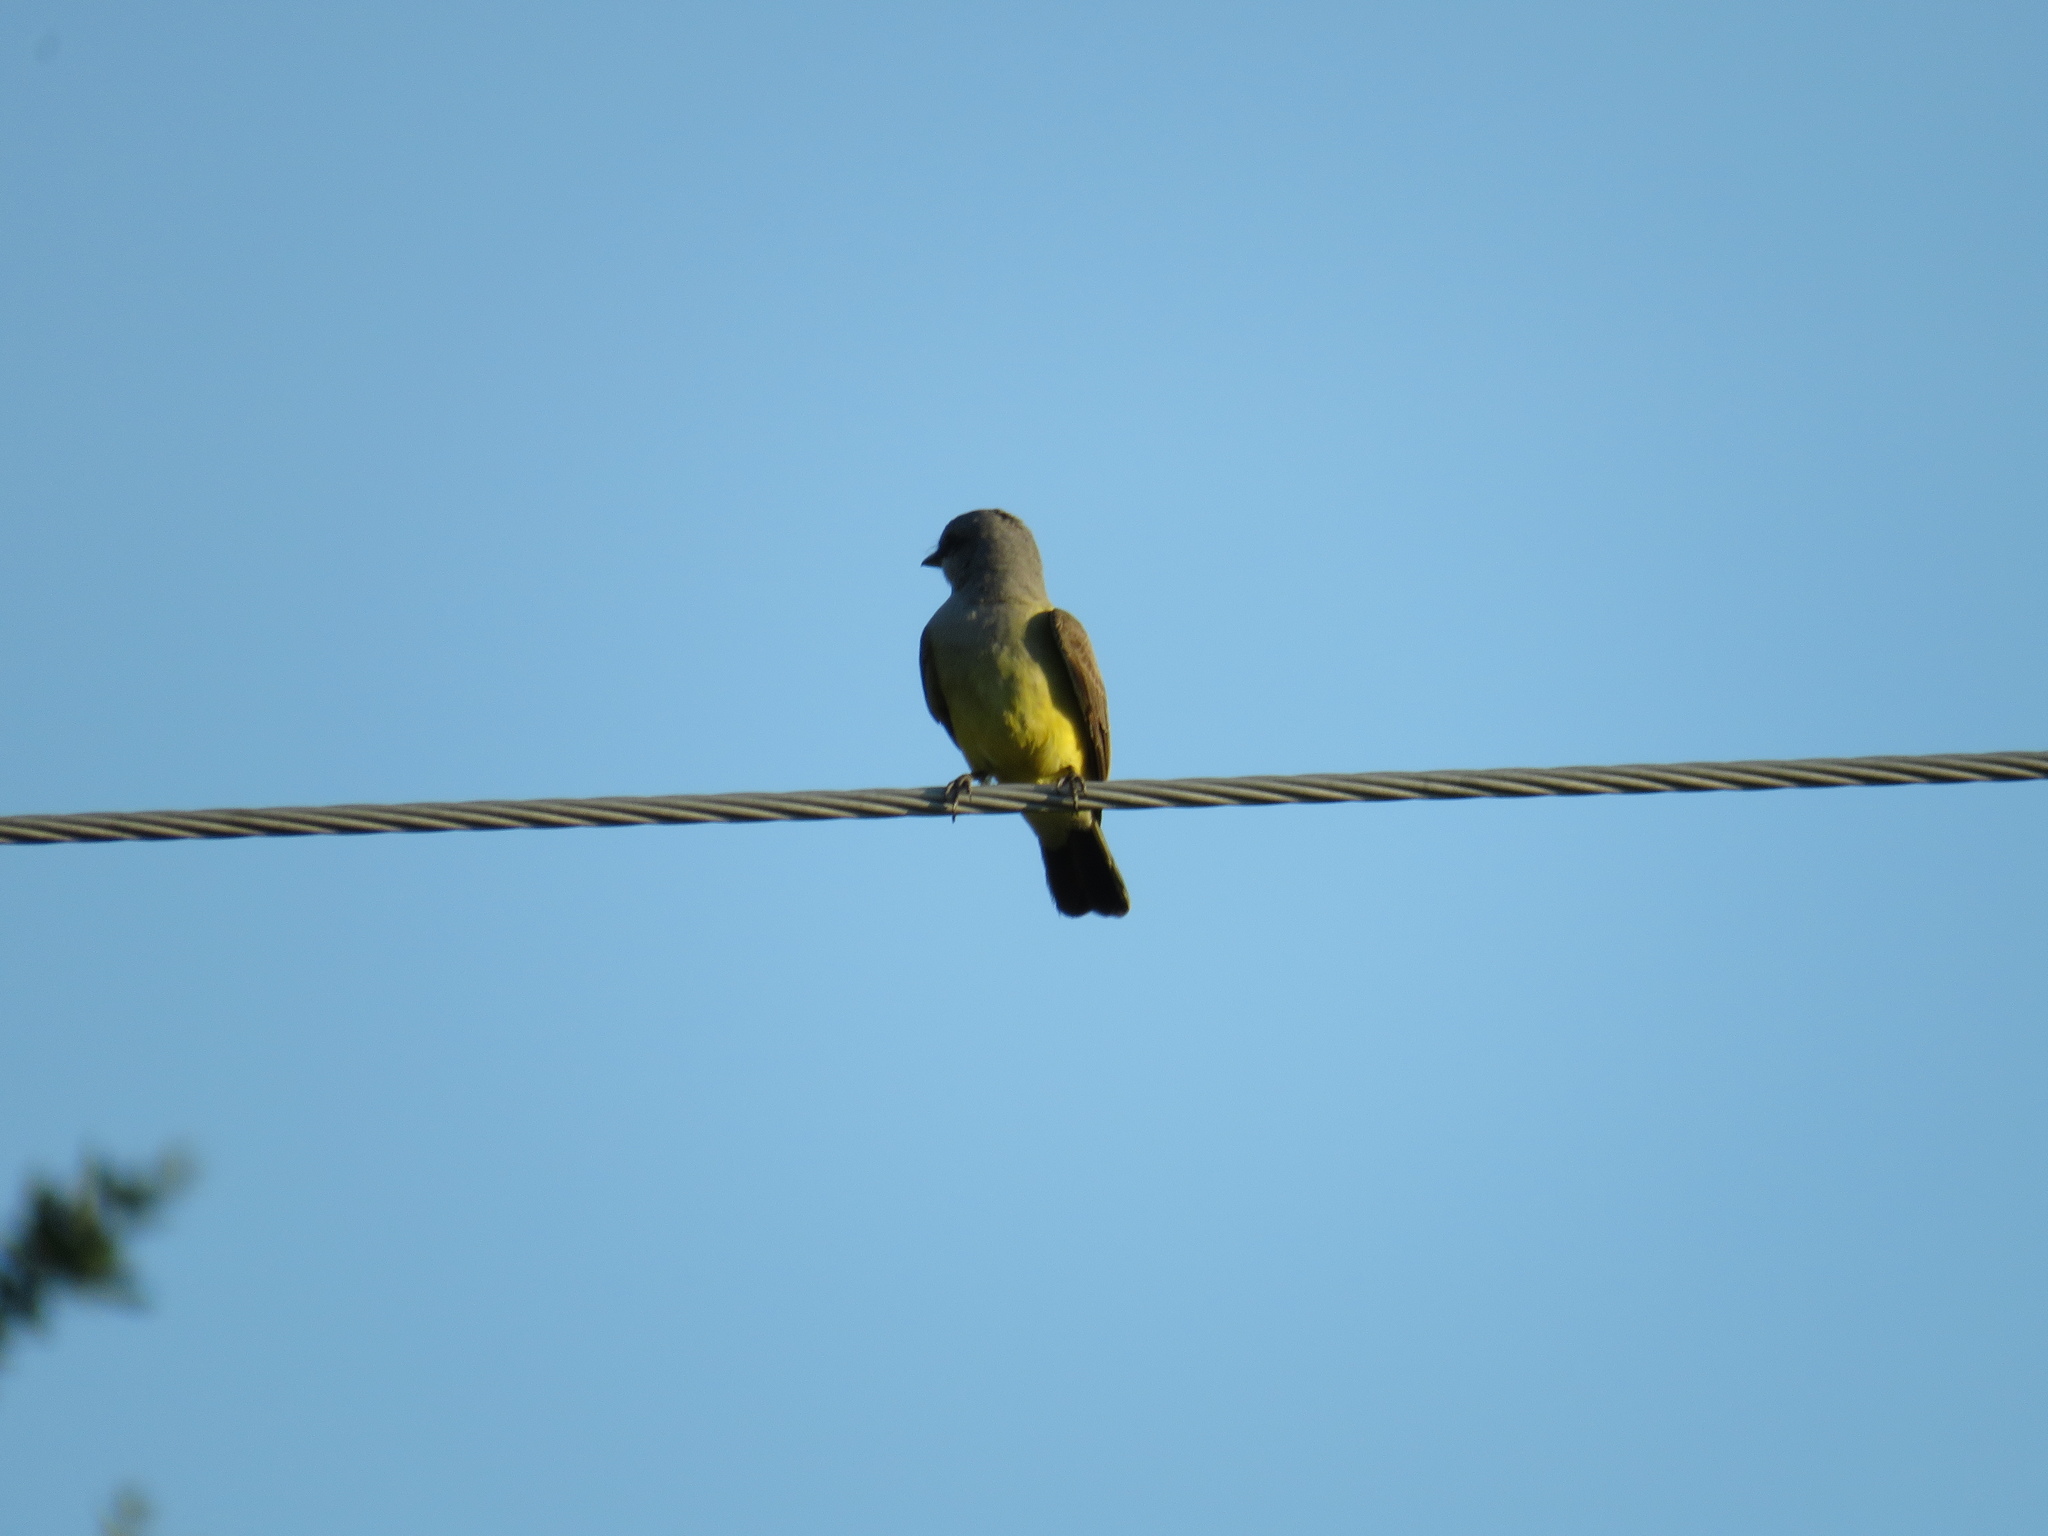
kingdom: Animalia
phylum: Chordata
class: Aves
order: Passeriformes
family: Tyrannidae
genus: Tyrannus
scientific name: Tyrannus verticalis
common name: Western kingbird
